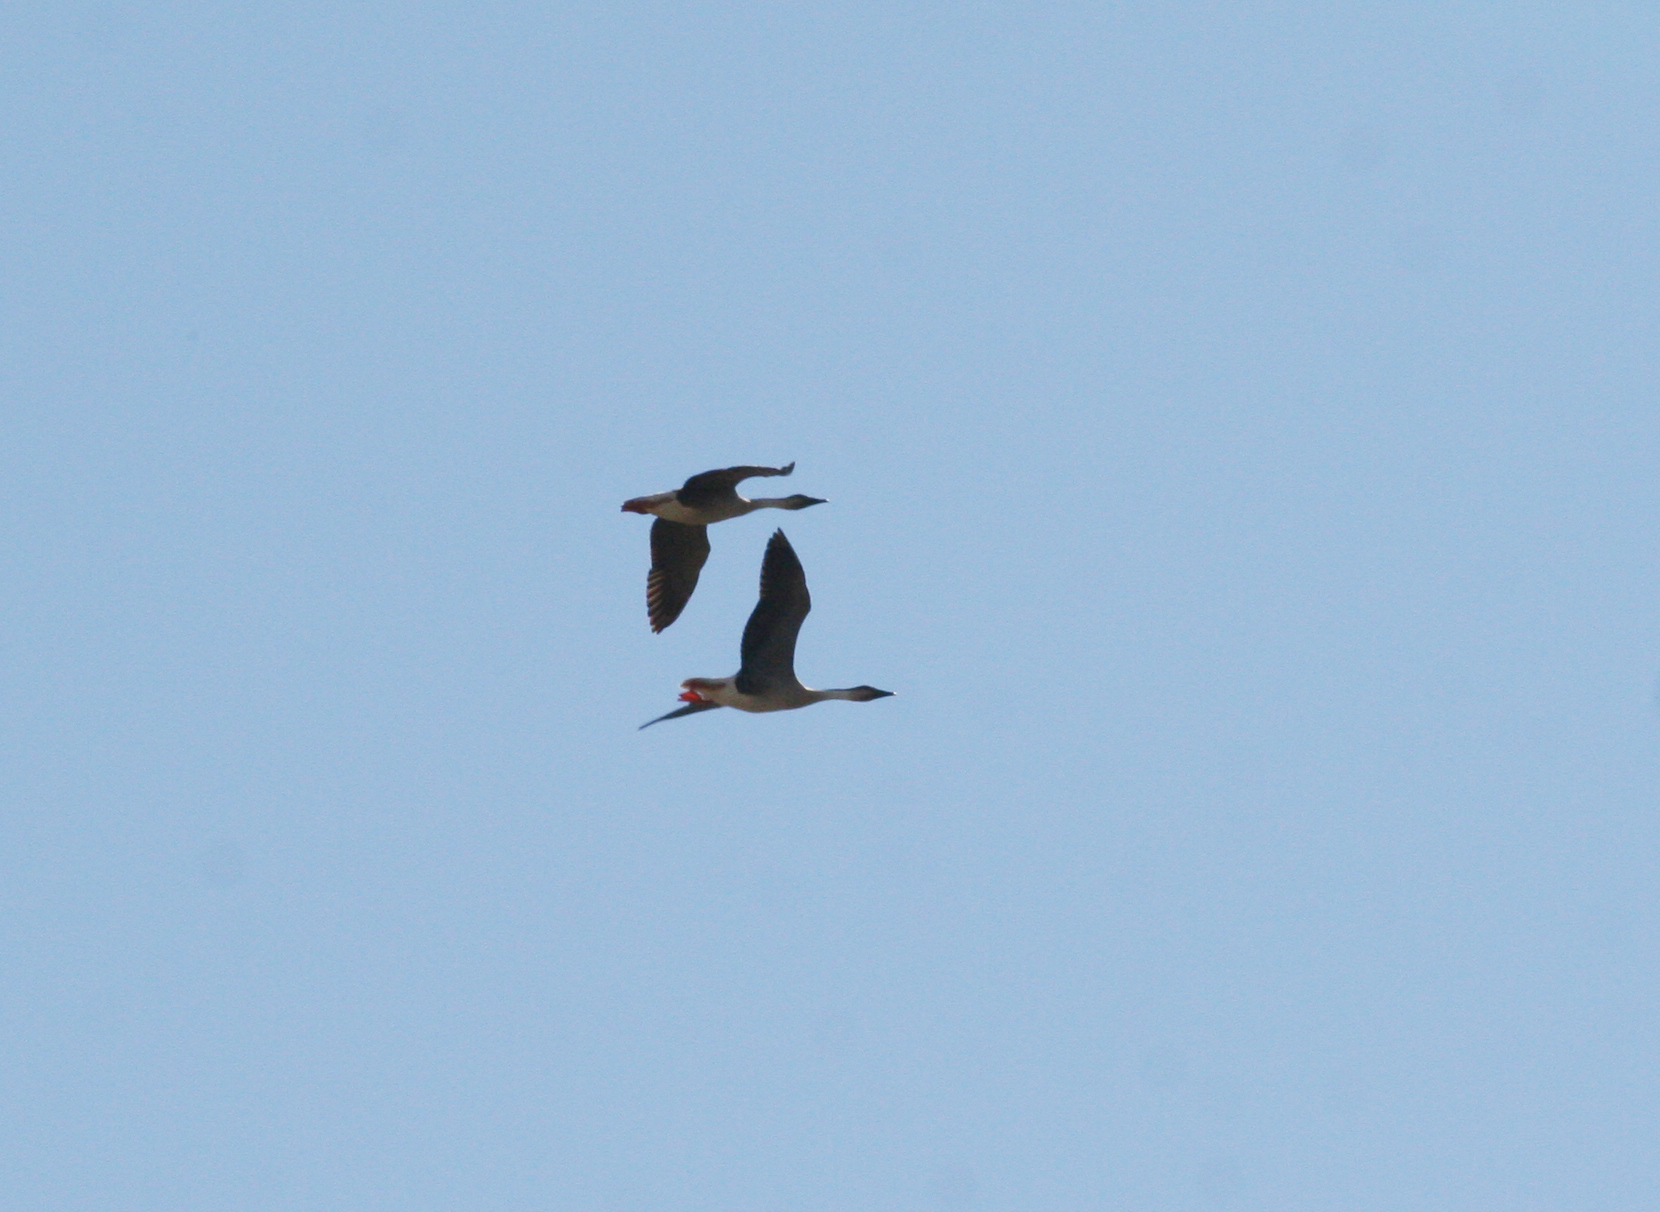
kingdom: Animalia
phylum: Chordata
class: Aves
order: Anseriformes
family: Anatidae
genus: Anser
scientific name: Anser cygnoides
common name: Swan goose
